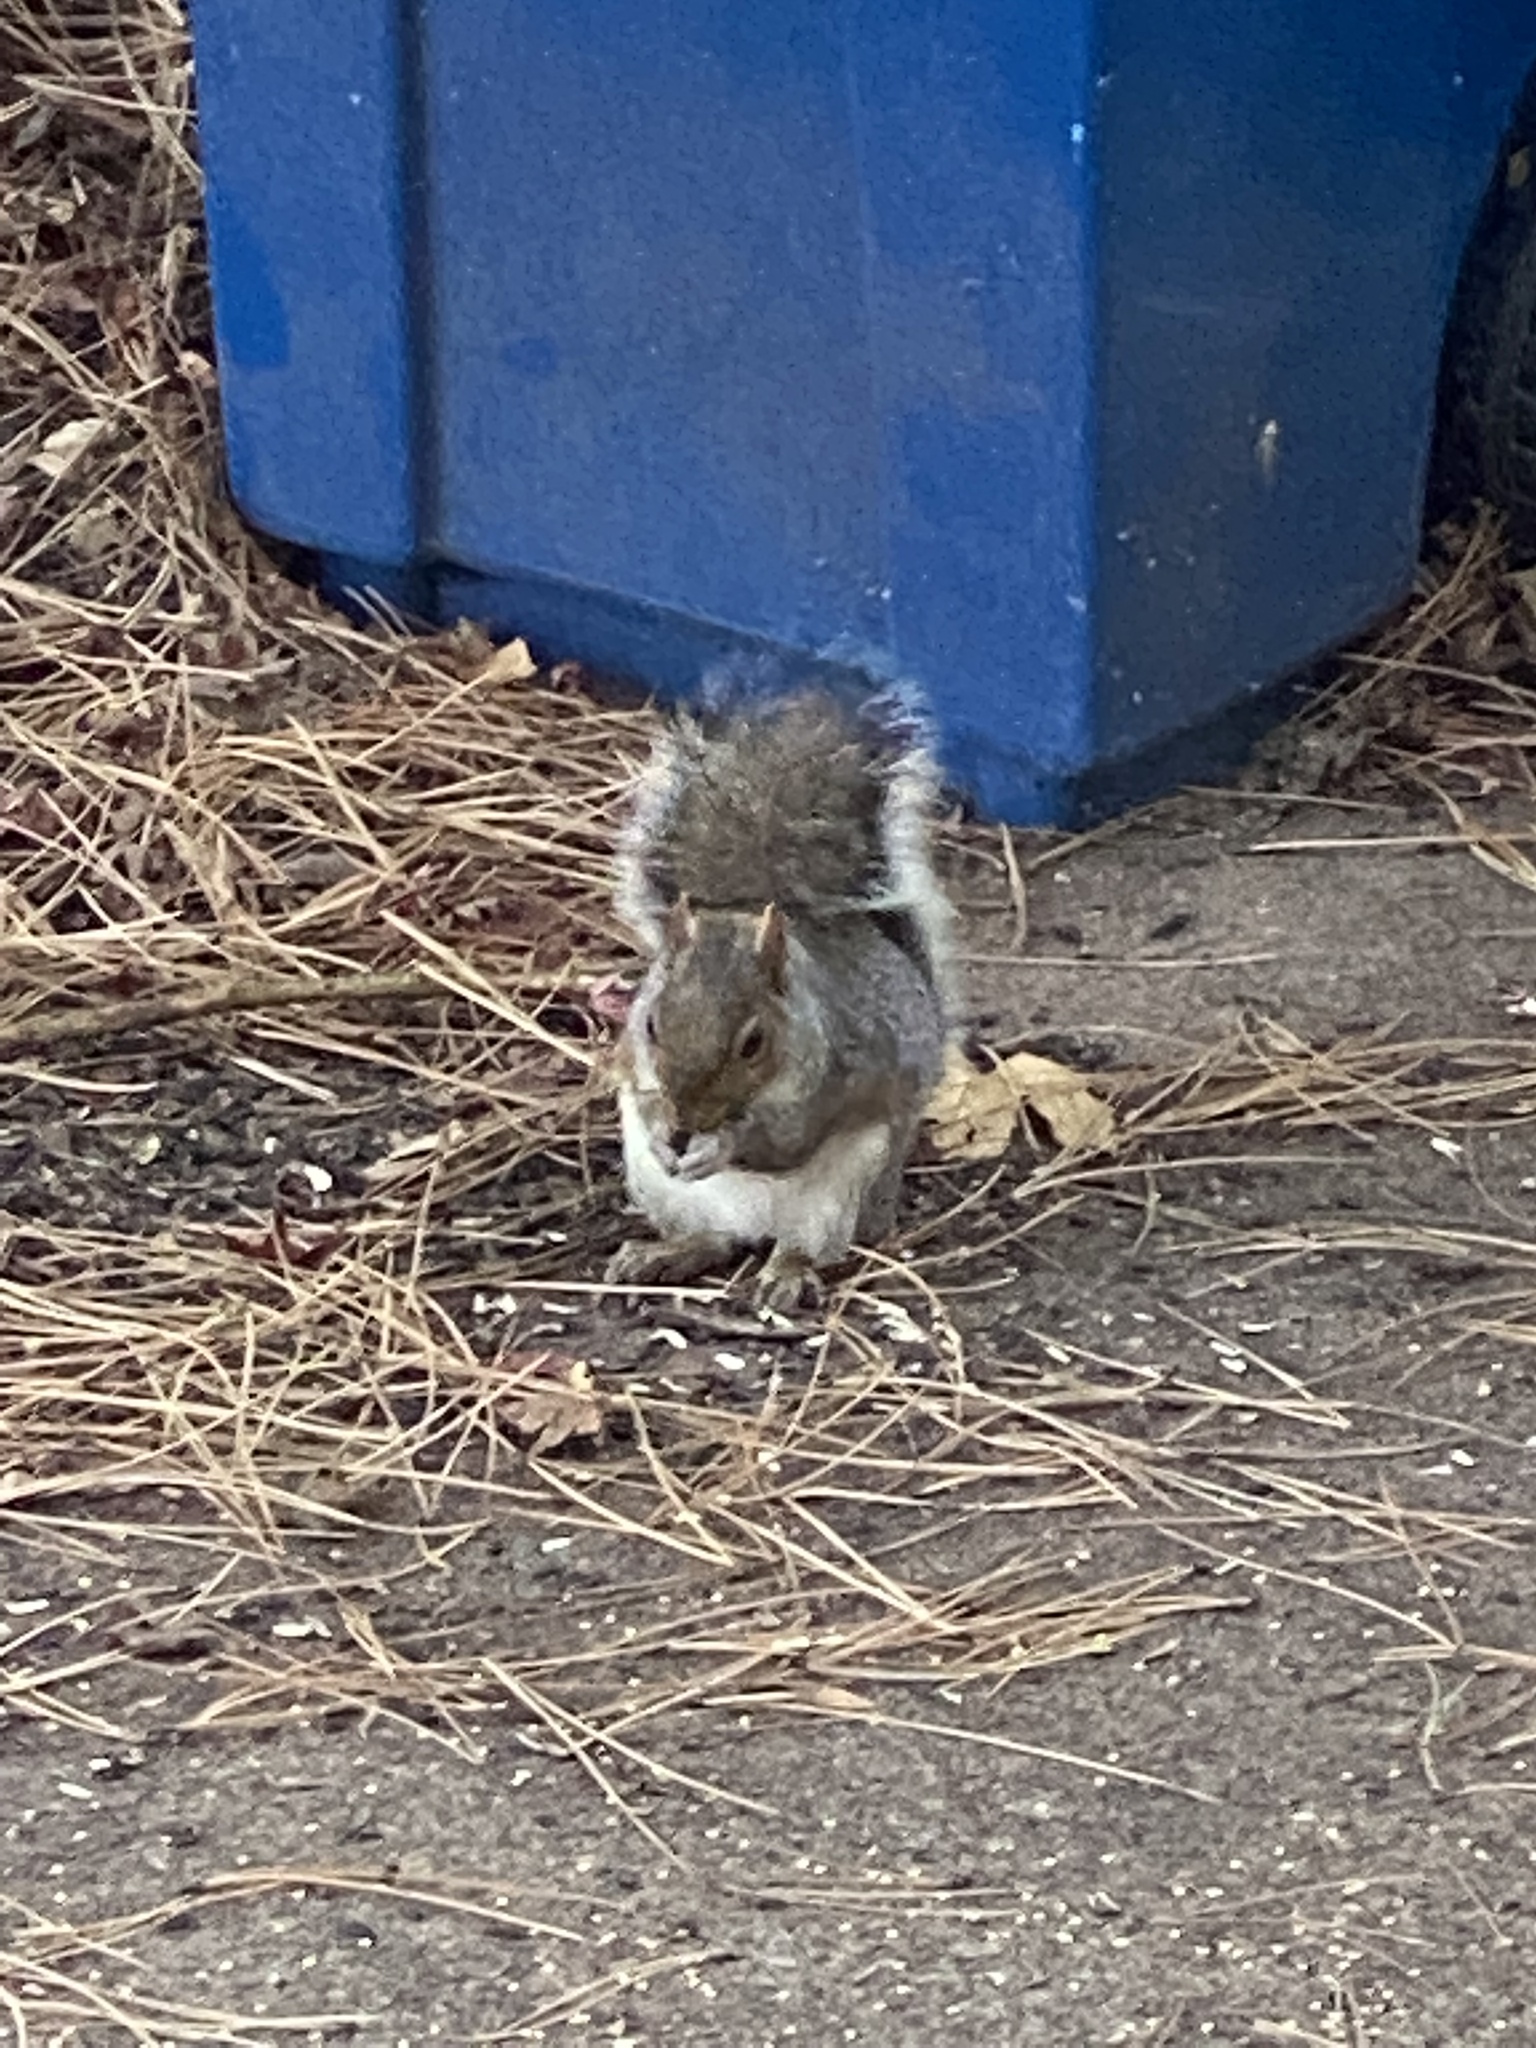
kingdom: Animalia
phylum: Chordata
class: Mammalia
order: Rodentia
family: Sciuridae
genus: Sciurus
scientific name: Sciurus carolinensis
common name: Eastern gray squirrel
